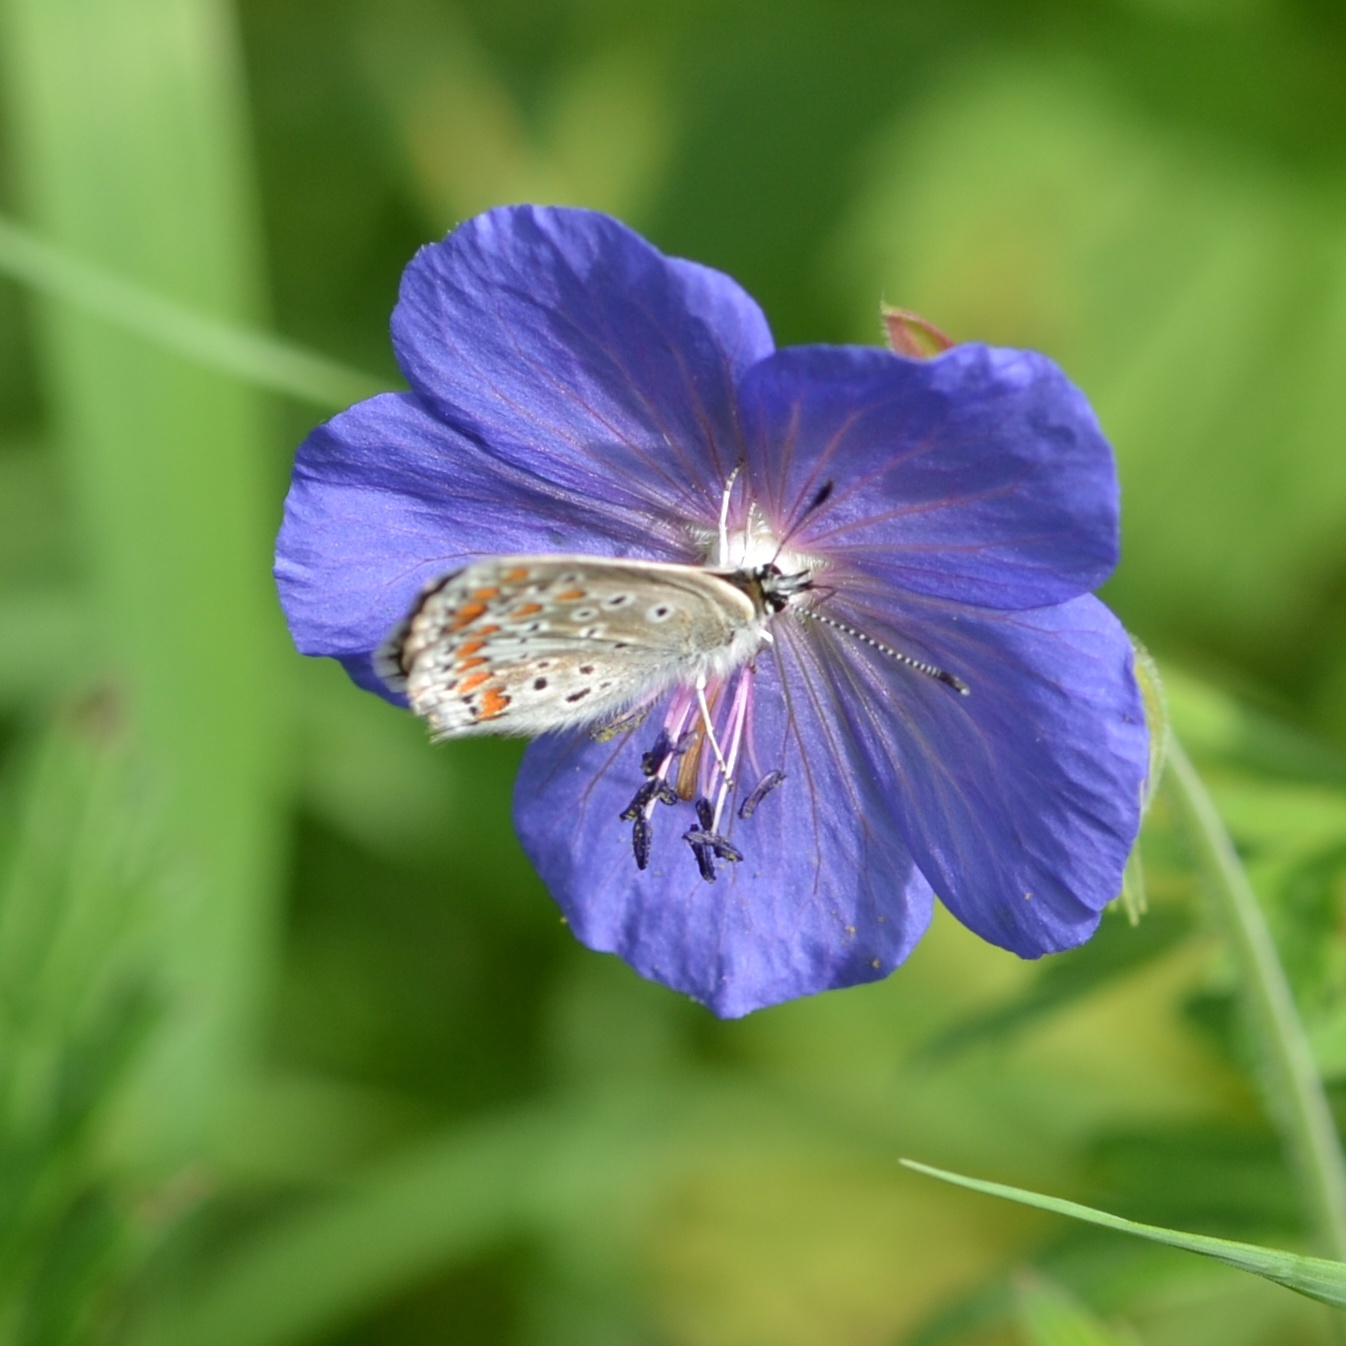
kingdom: Animalia
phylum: Arthropoda
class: Insecta
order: Lepidoptera
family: Lycaenidae
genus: Aricia
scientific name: Aricia agestis
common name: Brown argus
